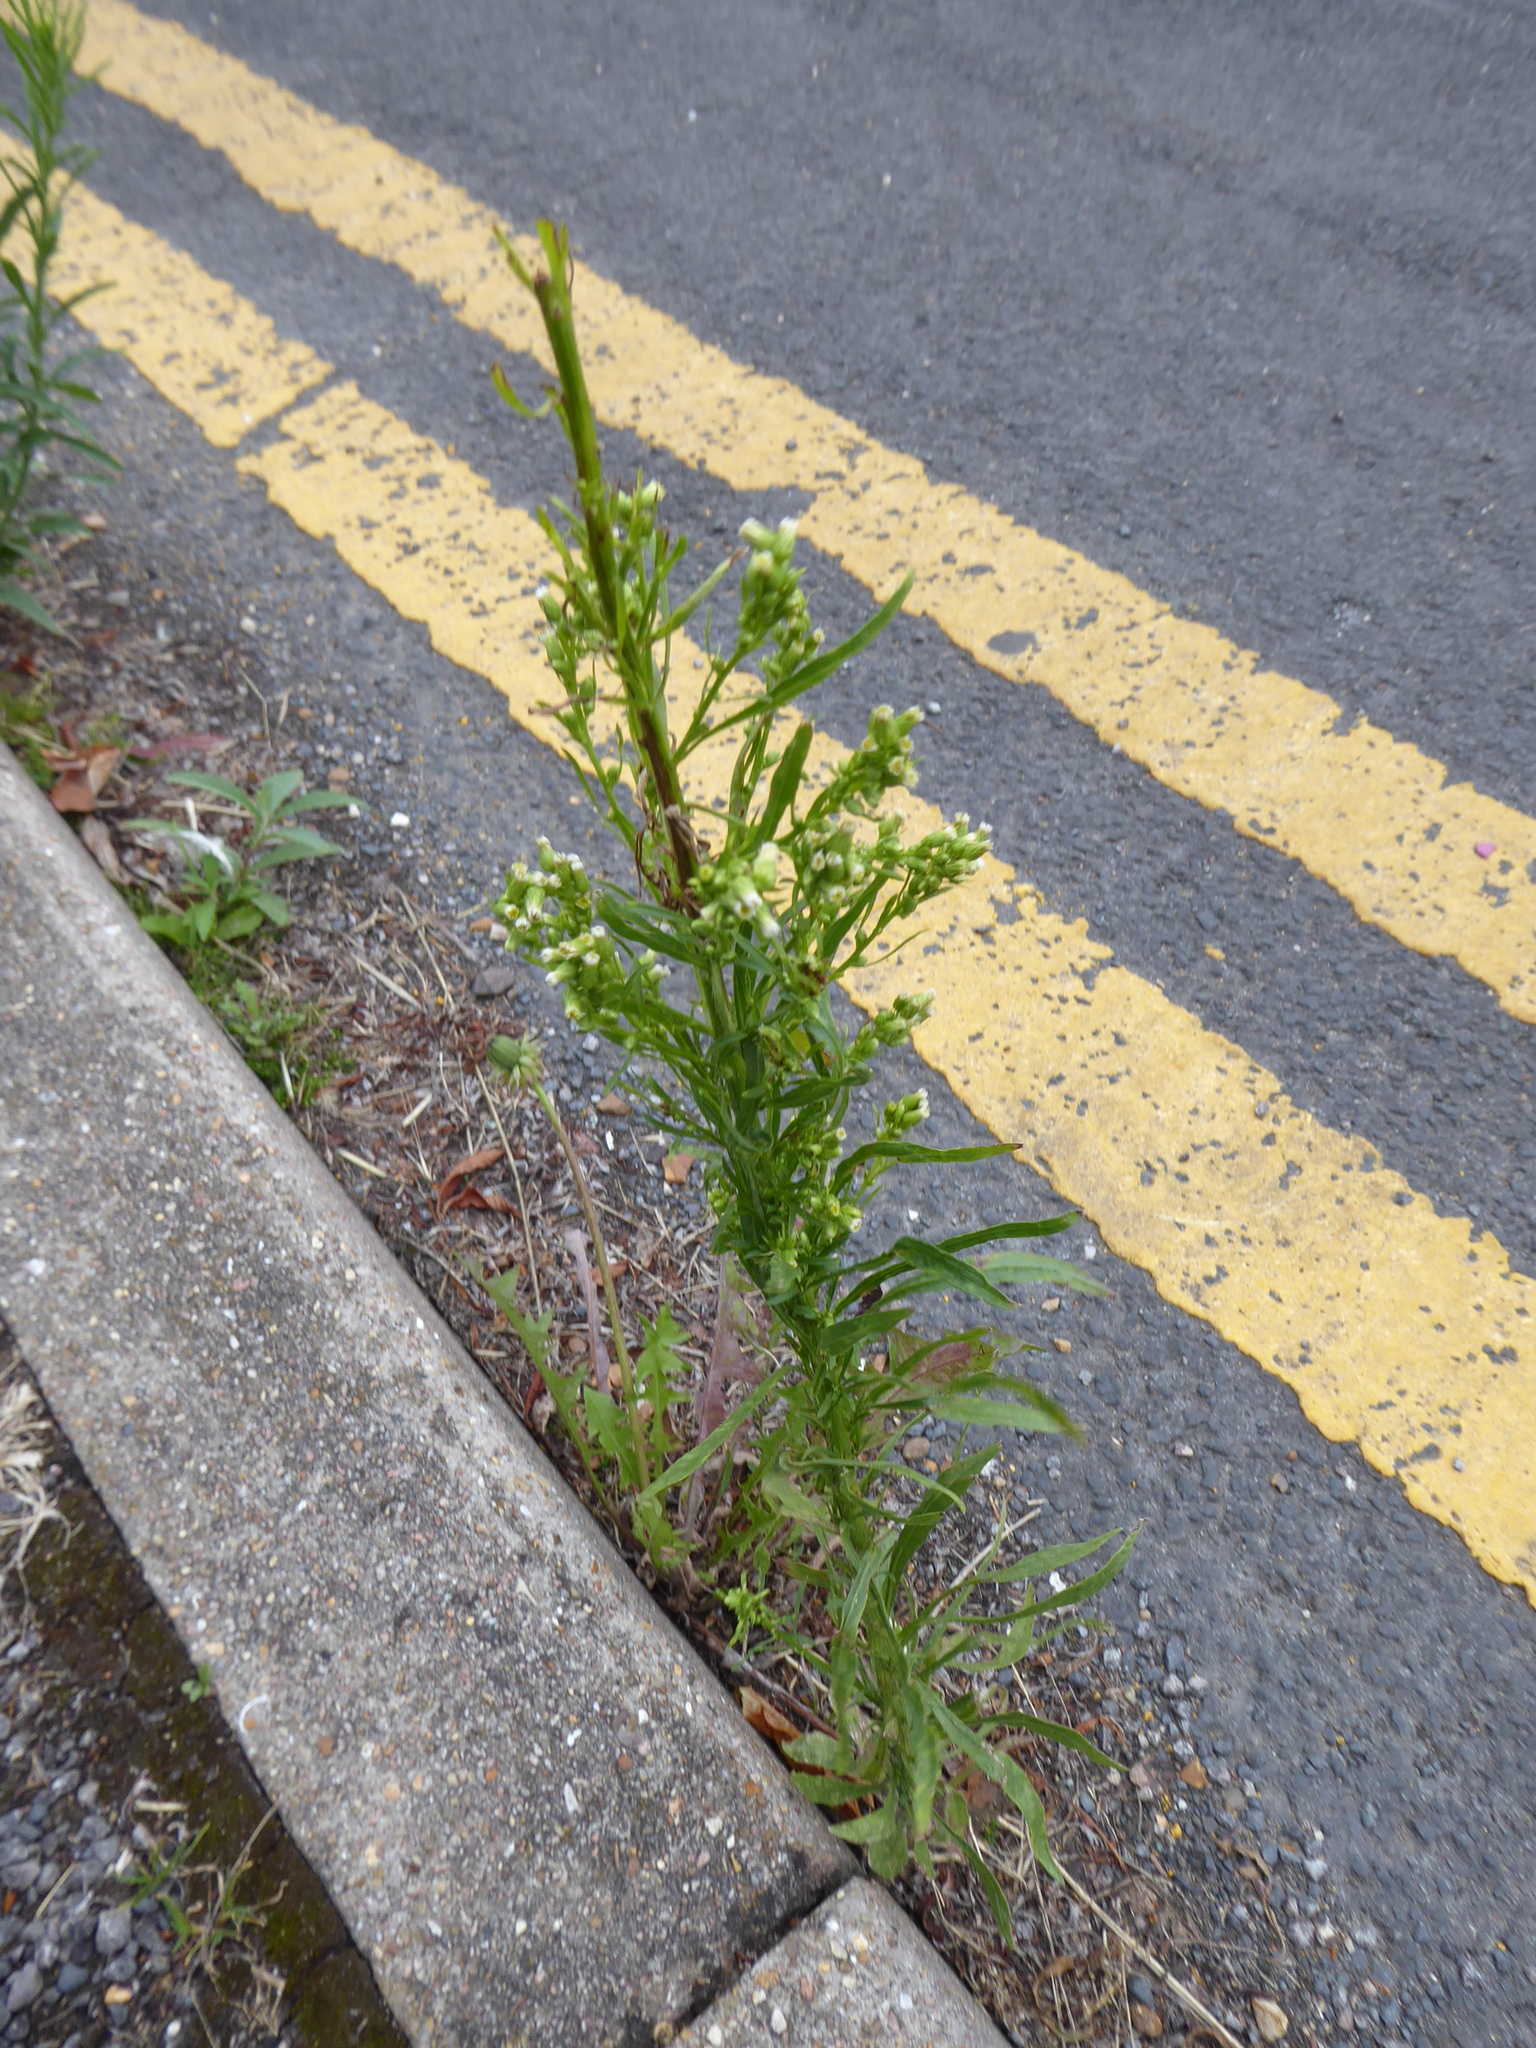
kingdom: Plantae
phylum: Tracheophyta
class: Magnoliopsida
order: Asterales
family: Asteraceae
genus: Erigeron
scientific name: Erigeron canadensis
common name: Canadian fleabane
